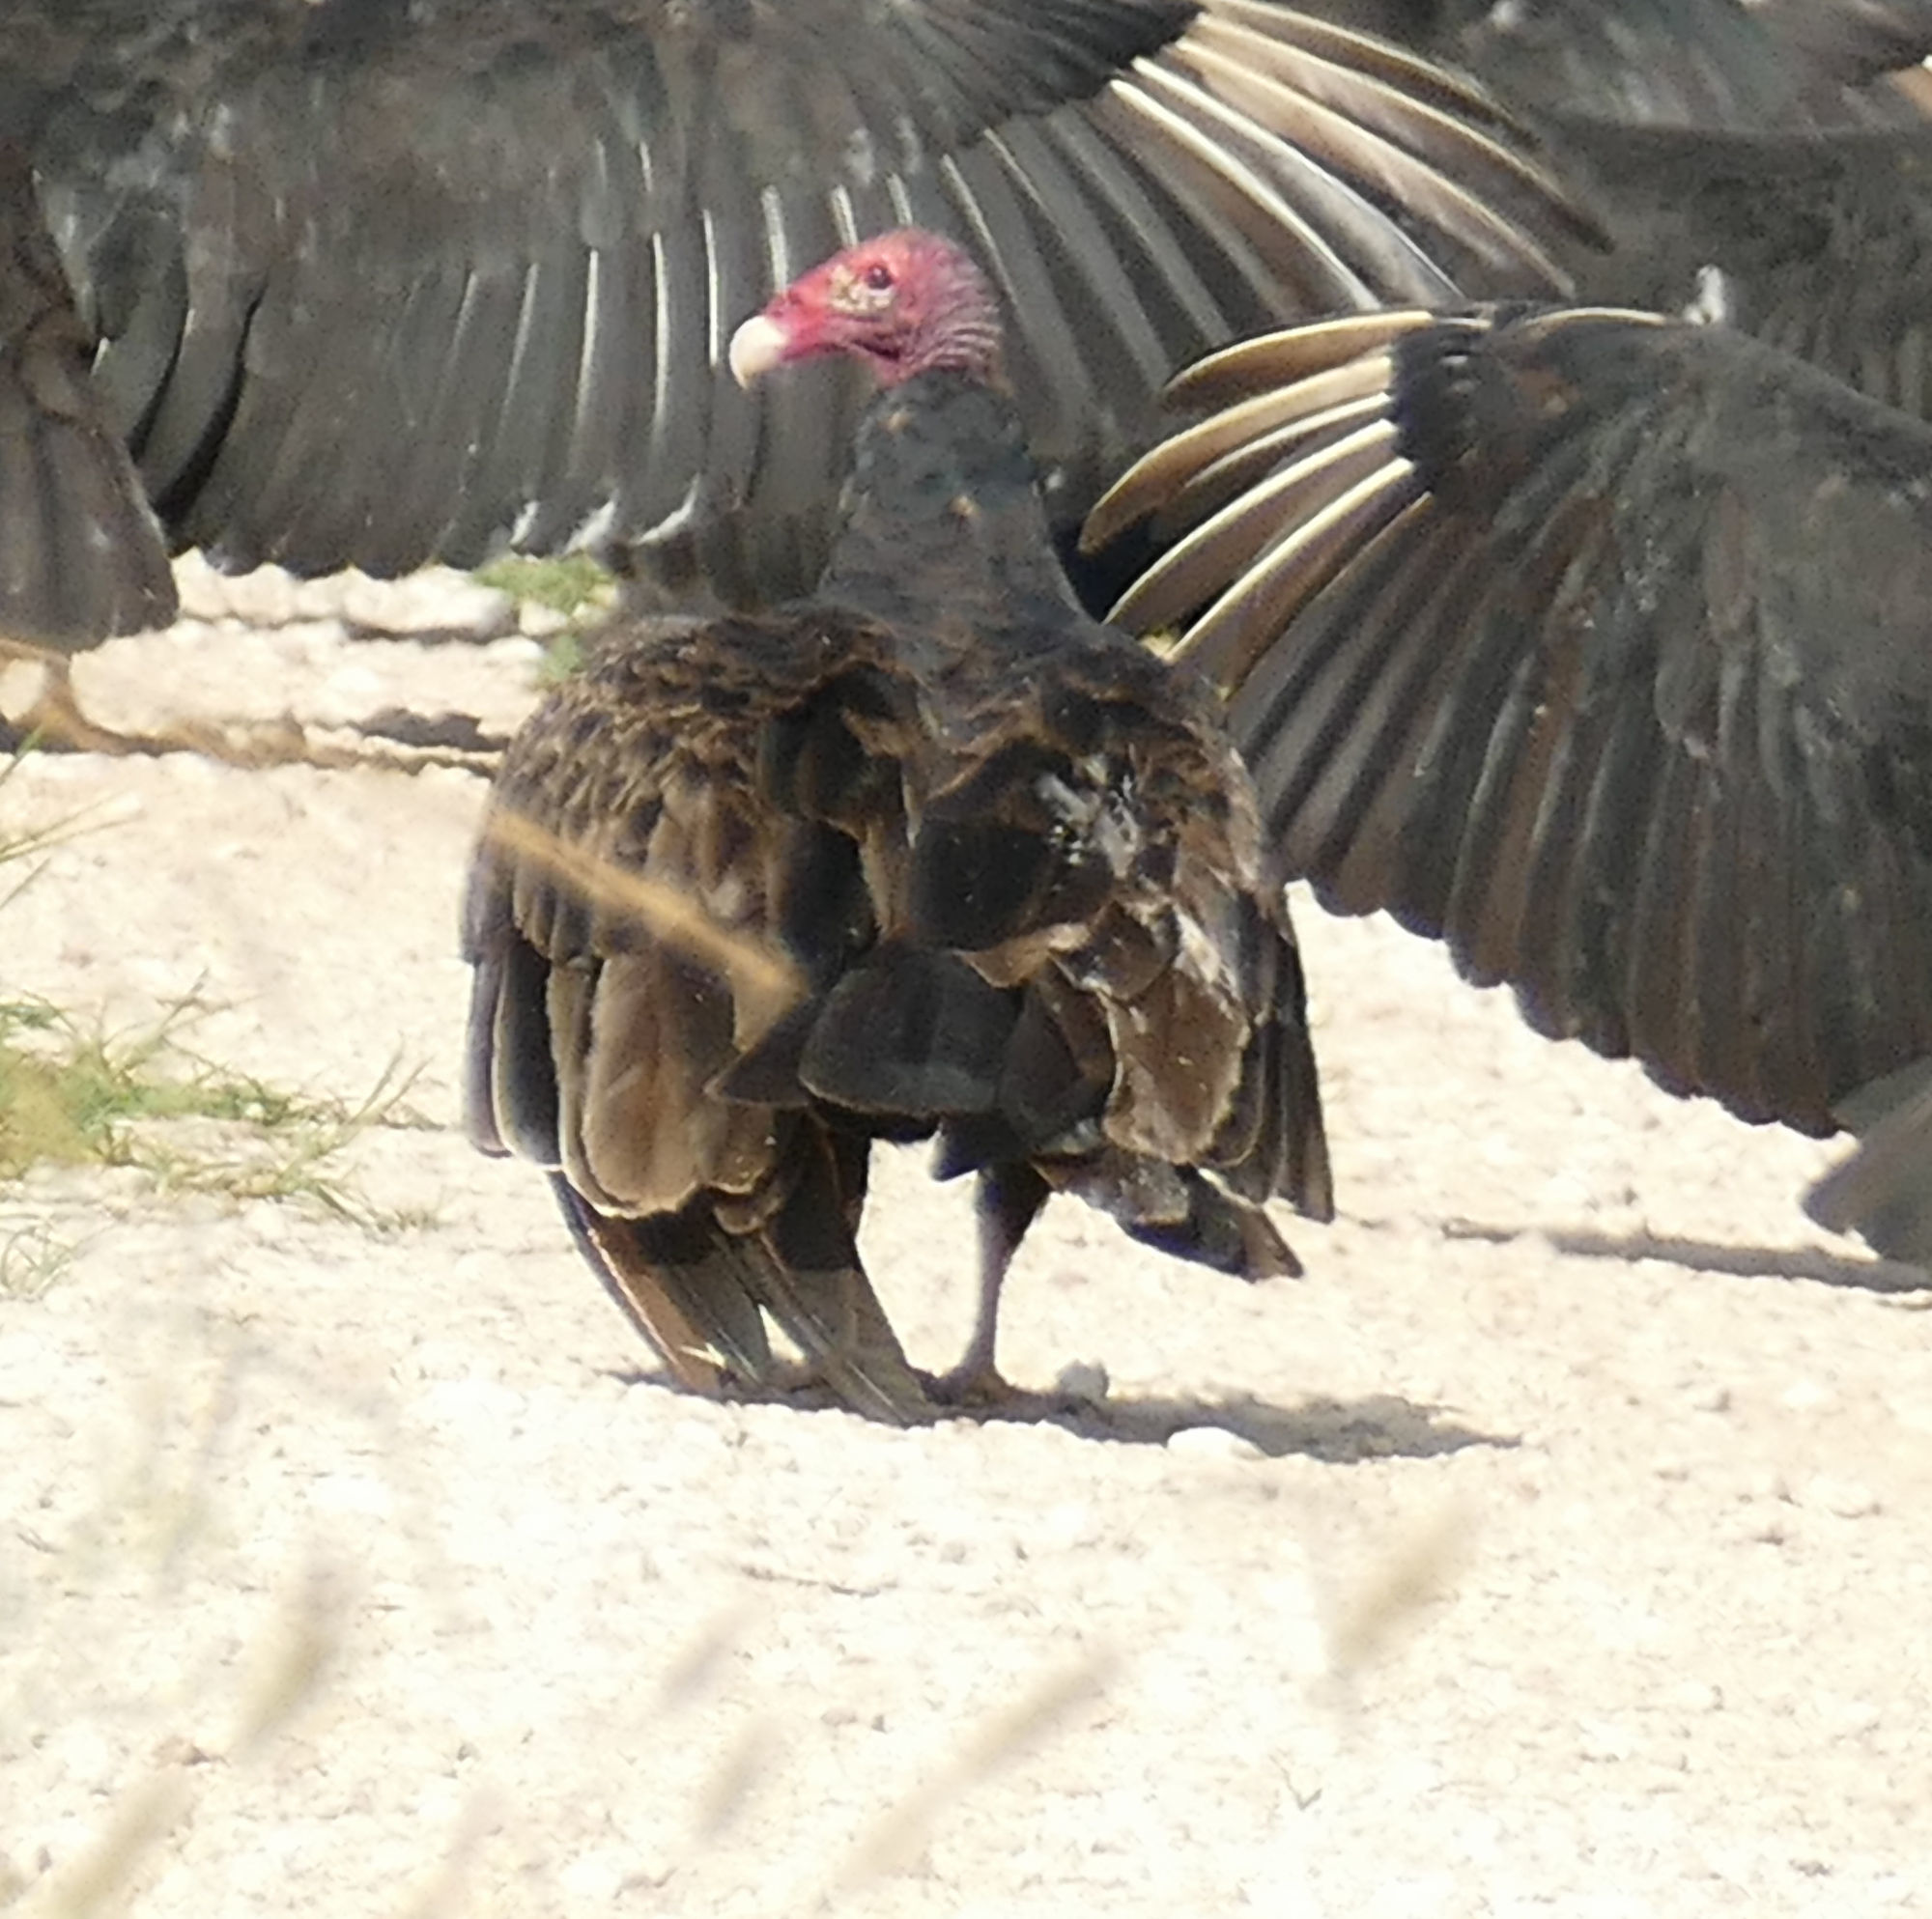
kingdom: Animalia
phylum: Chordata
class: Aves
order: Accipitriformes
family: Cathartidae
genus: Cathartes
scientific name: Cathartes aura
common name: Turkey vulture
